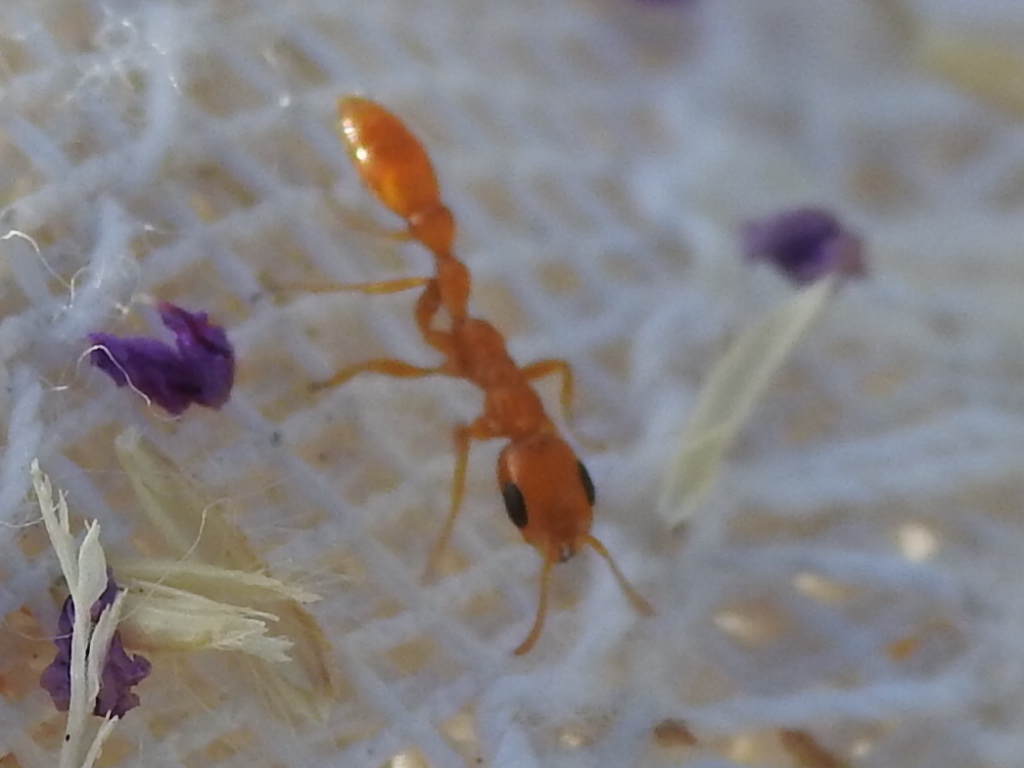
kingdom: Animalia
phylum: Arthropoda
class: Insecta
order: Hymenoptera
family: Formicidae
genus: Pseudomyrmex
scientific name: Pseudomyrmex pallidus
